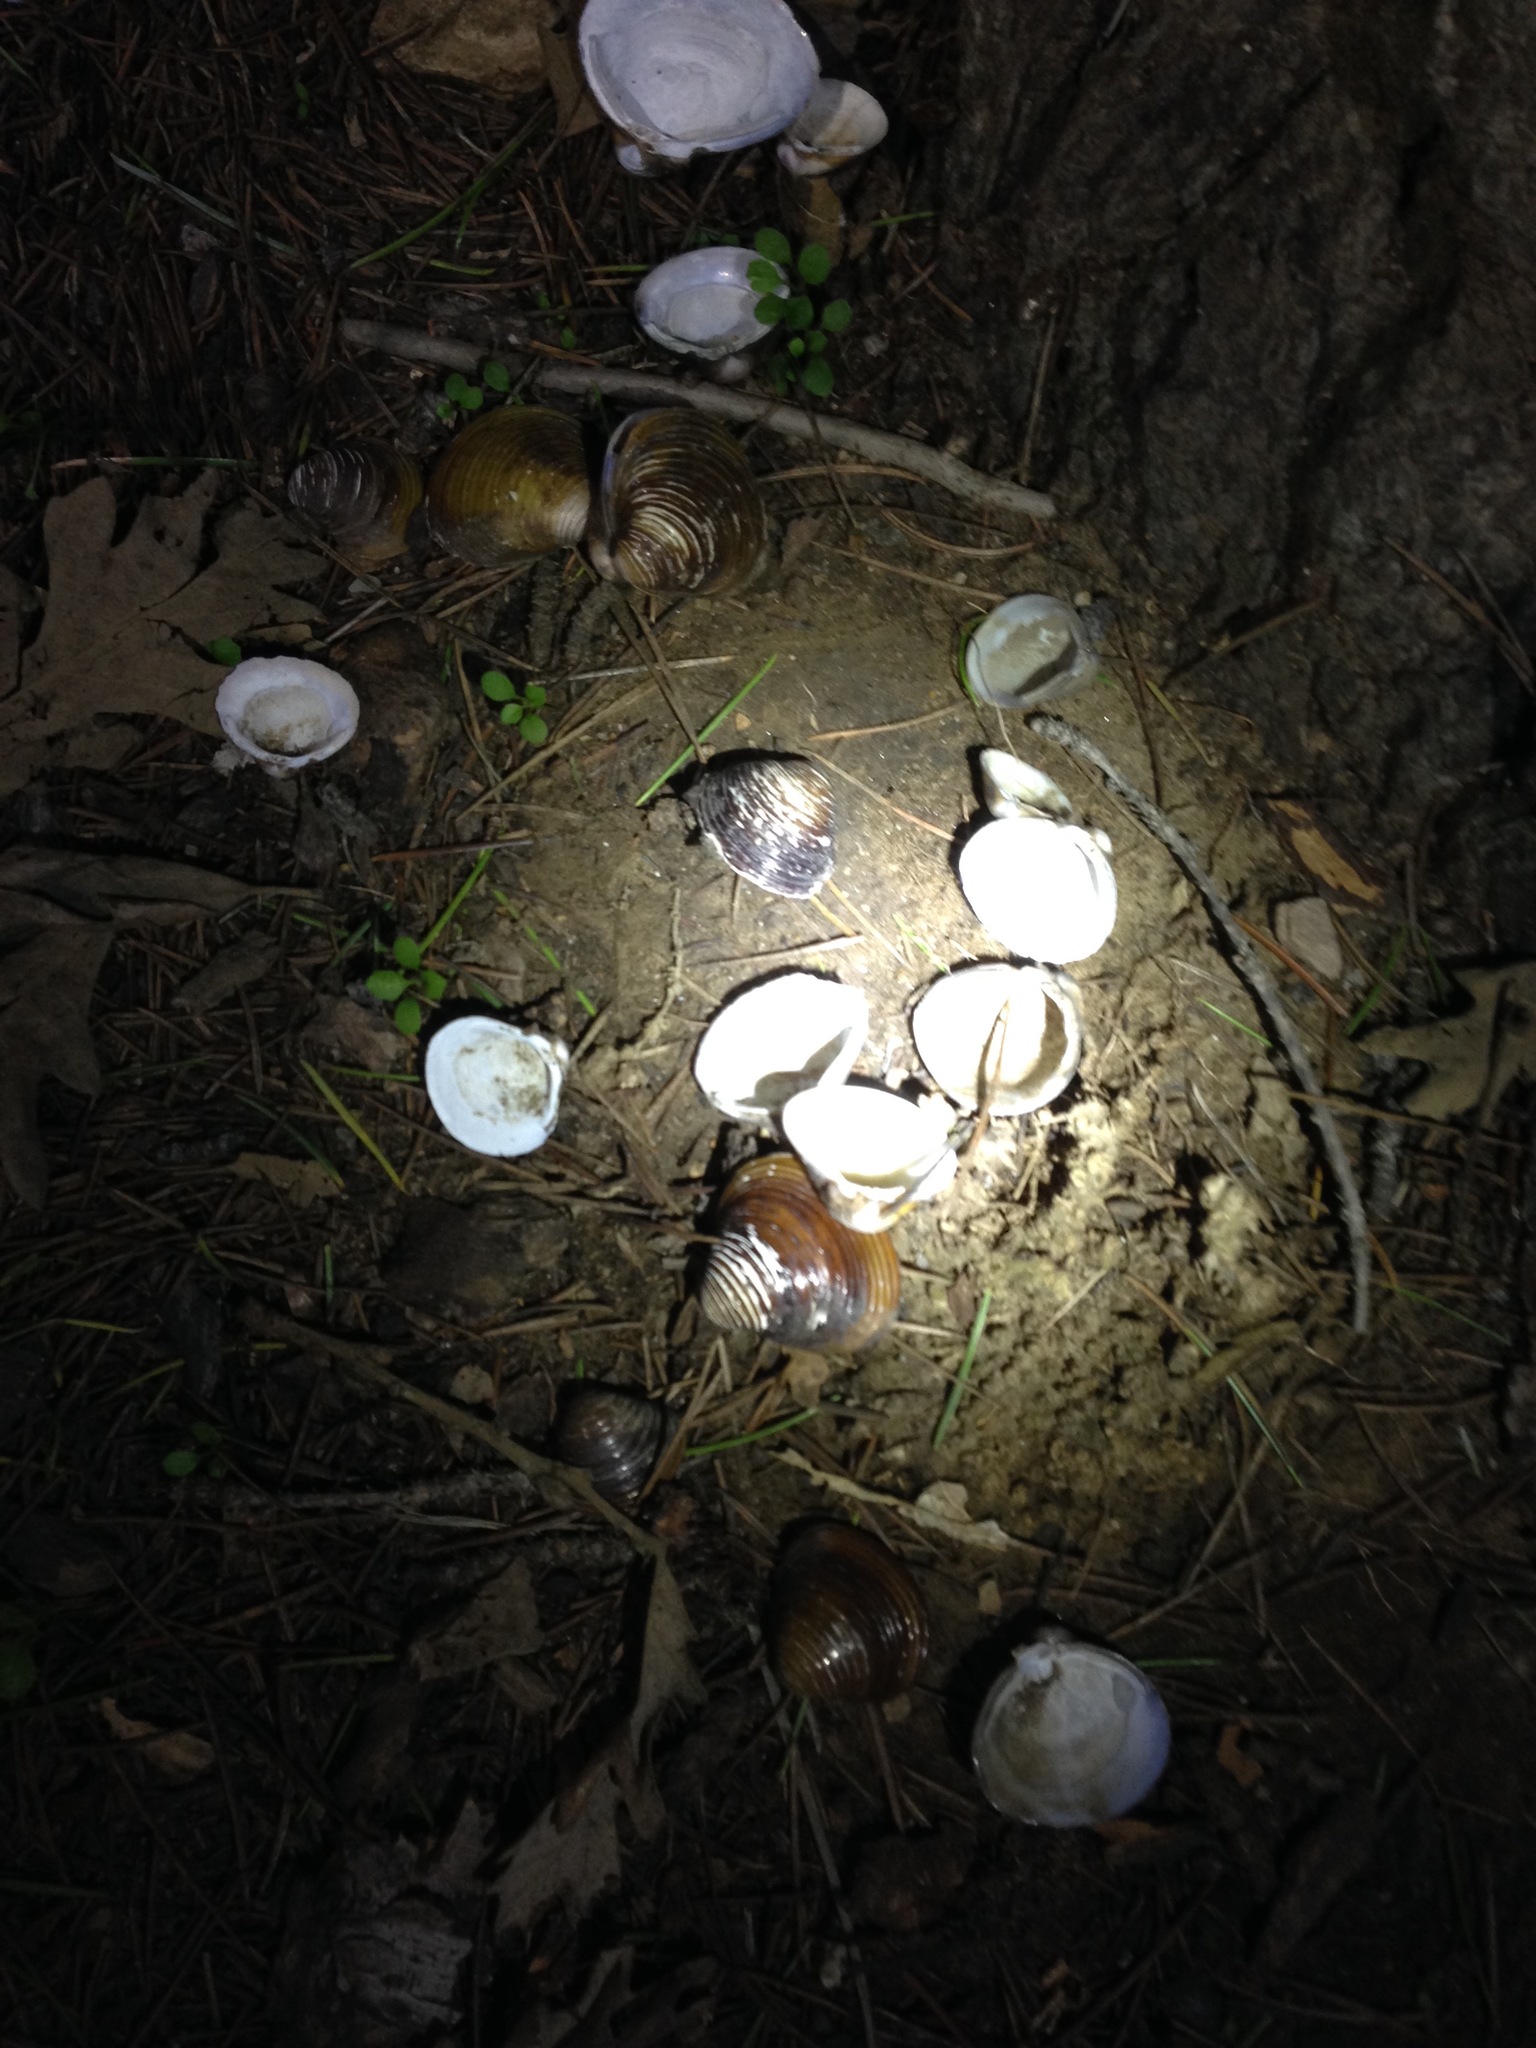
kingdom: Animalia
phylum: Mollusca
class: Bivalvia
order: Venerida
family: Cyrenidae
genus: Corbicula
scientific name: Corbicula fluminea
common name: Asian clam
